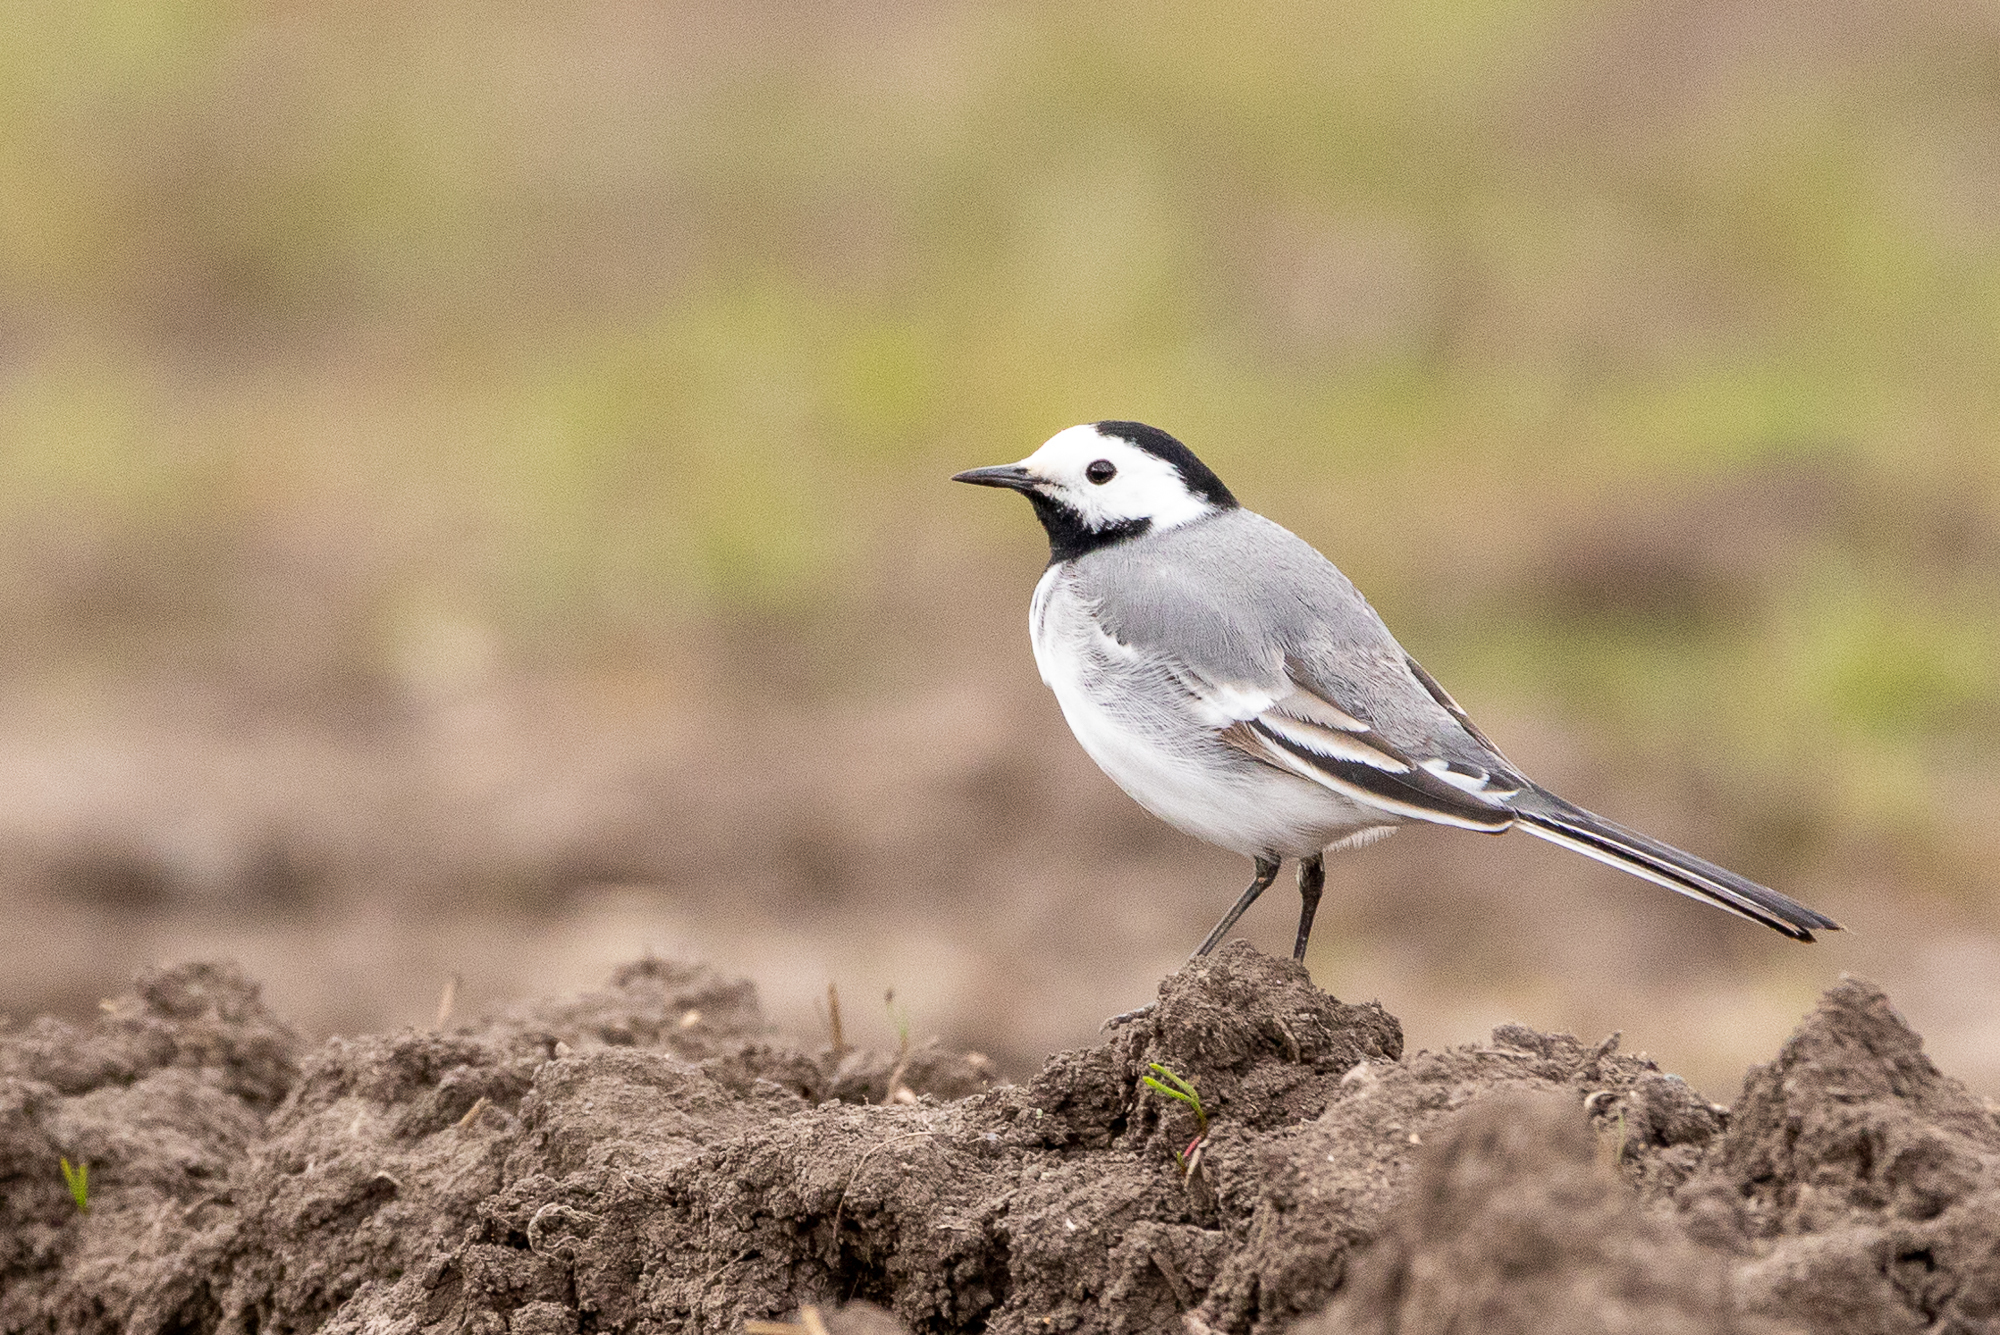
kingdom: Animalia
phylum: Chordata
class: Aves
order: Passeriformes
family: Motacillidae
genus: Motacilla
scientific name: Motacilla alba
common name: White wagtail
